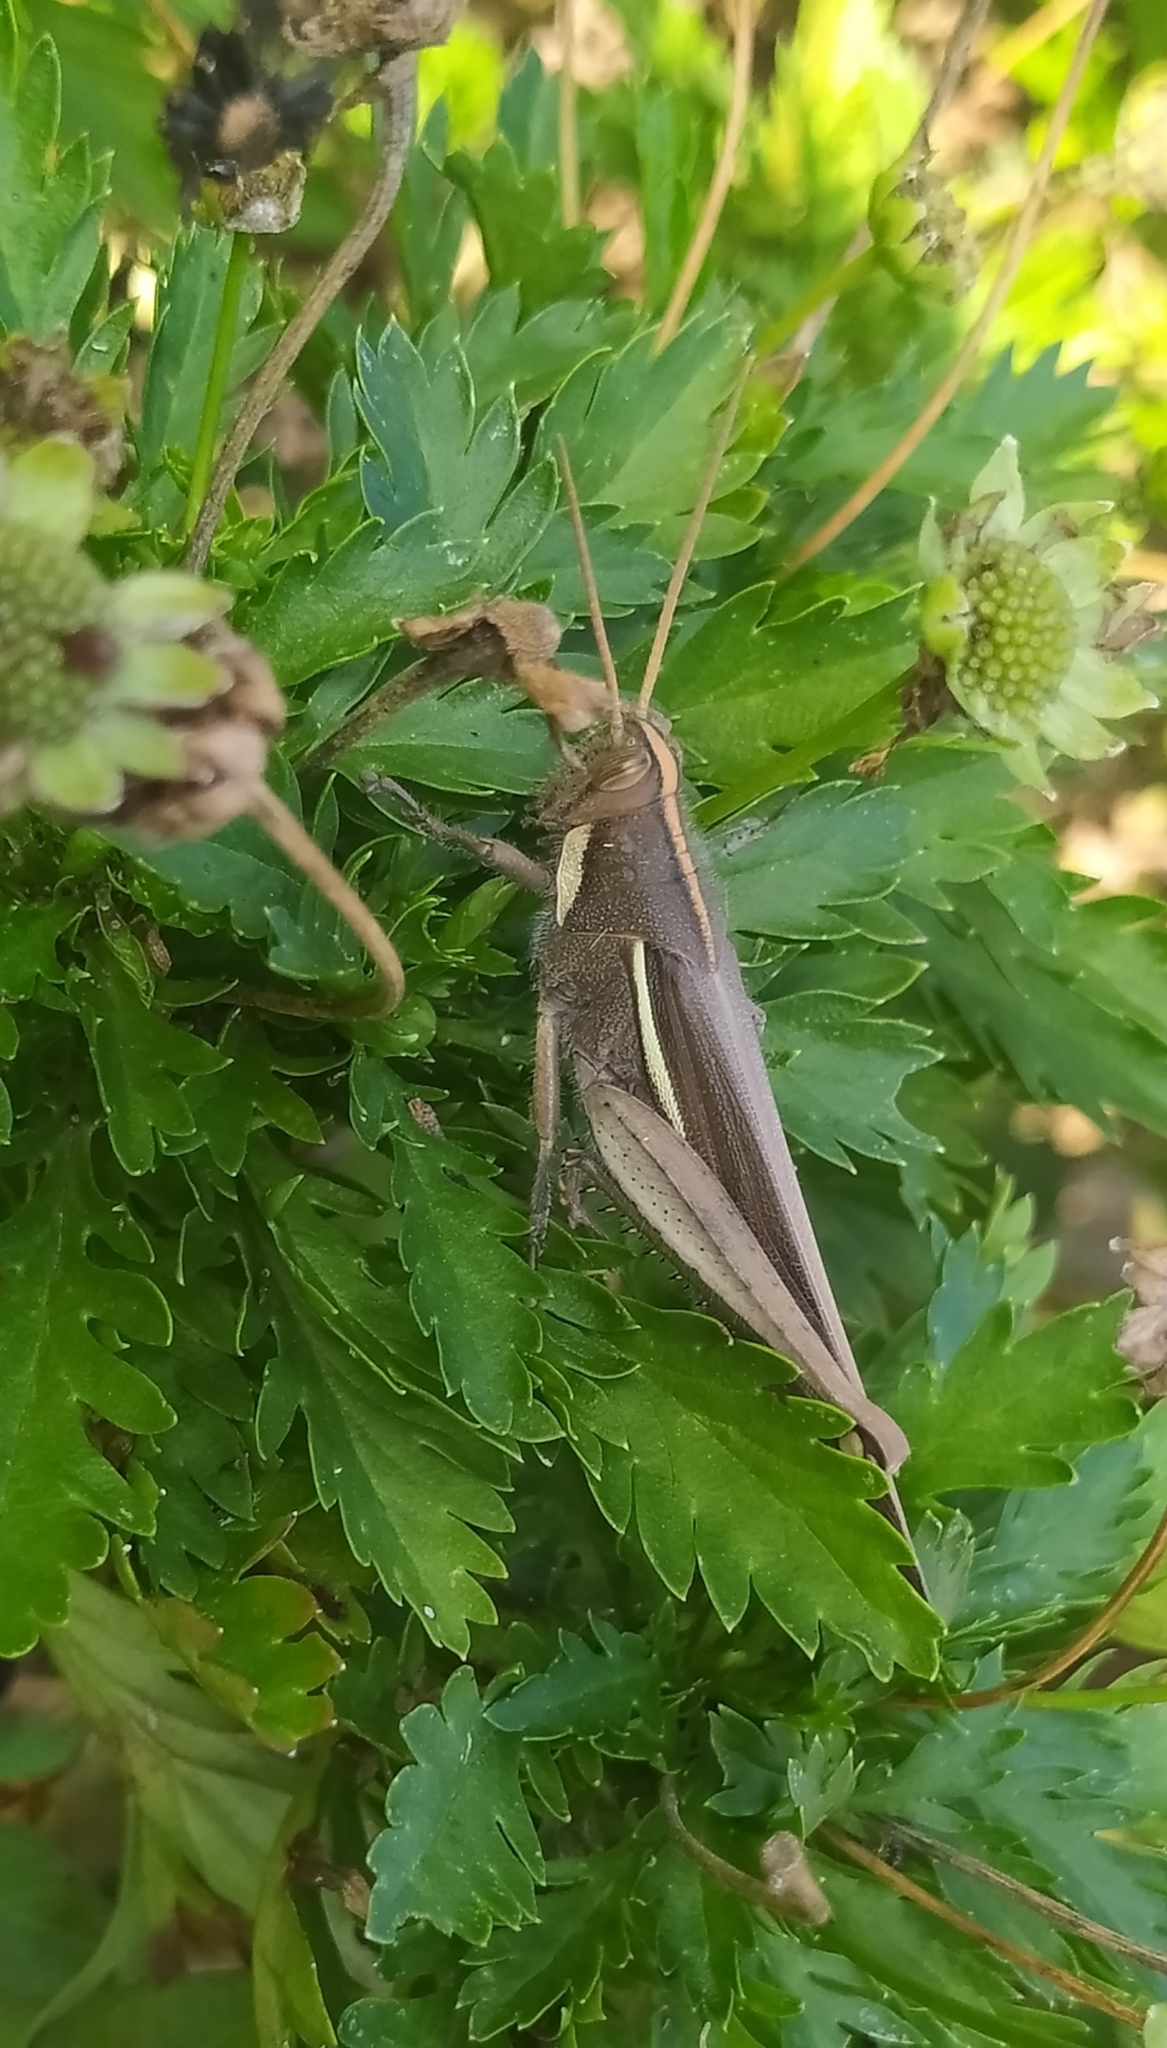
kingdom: Animalia
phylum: Arthropoda
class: Insecta
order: Orthoptera
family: Acrididae
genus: Schistocerca
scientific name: Schistocerca flavofasciata
